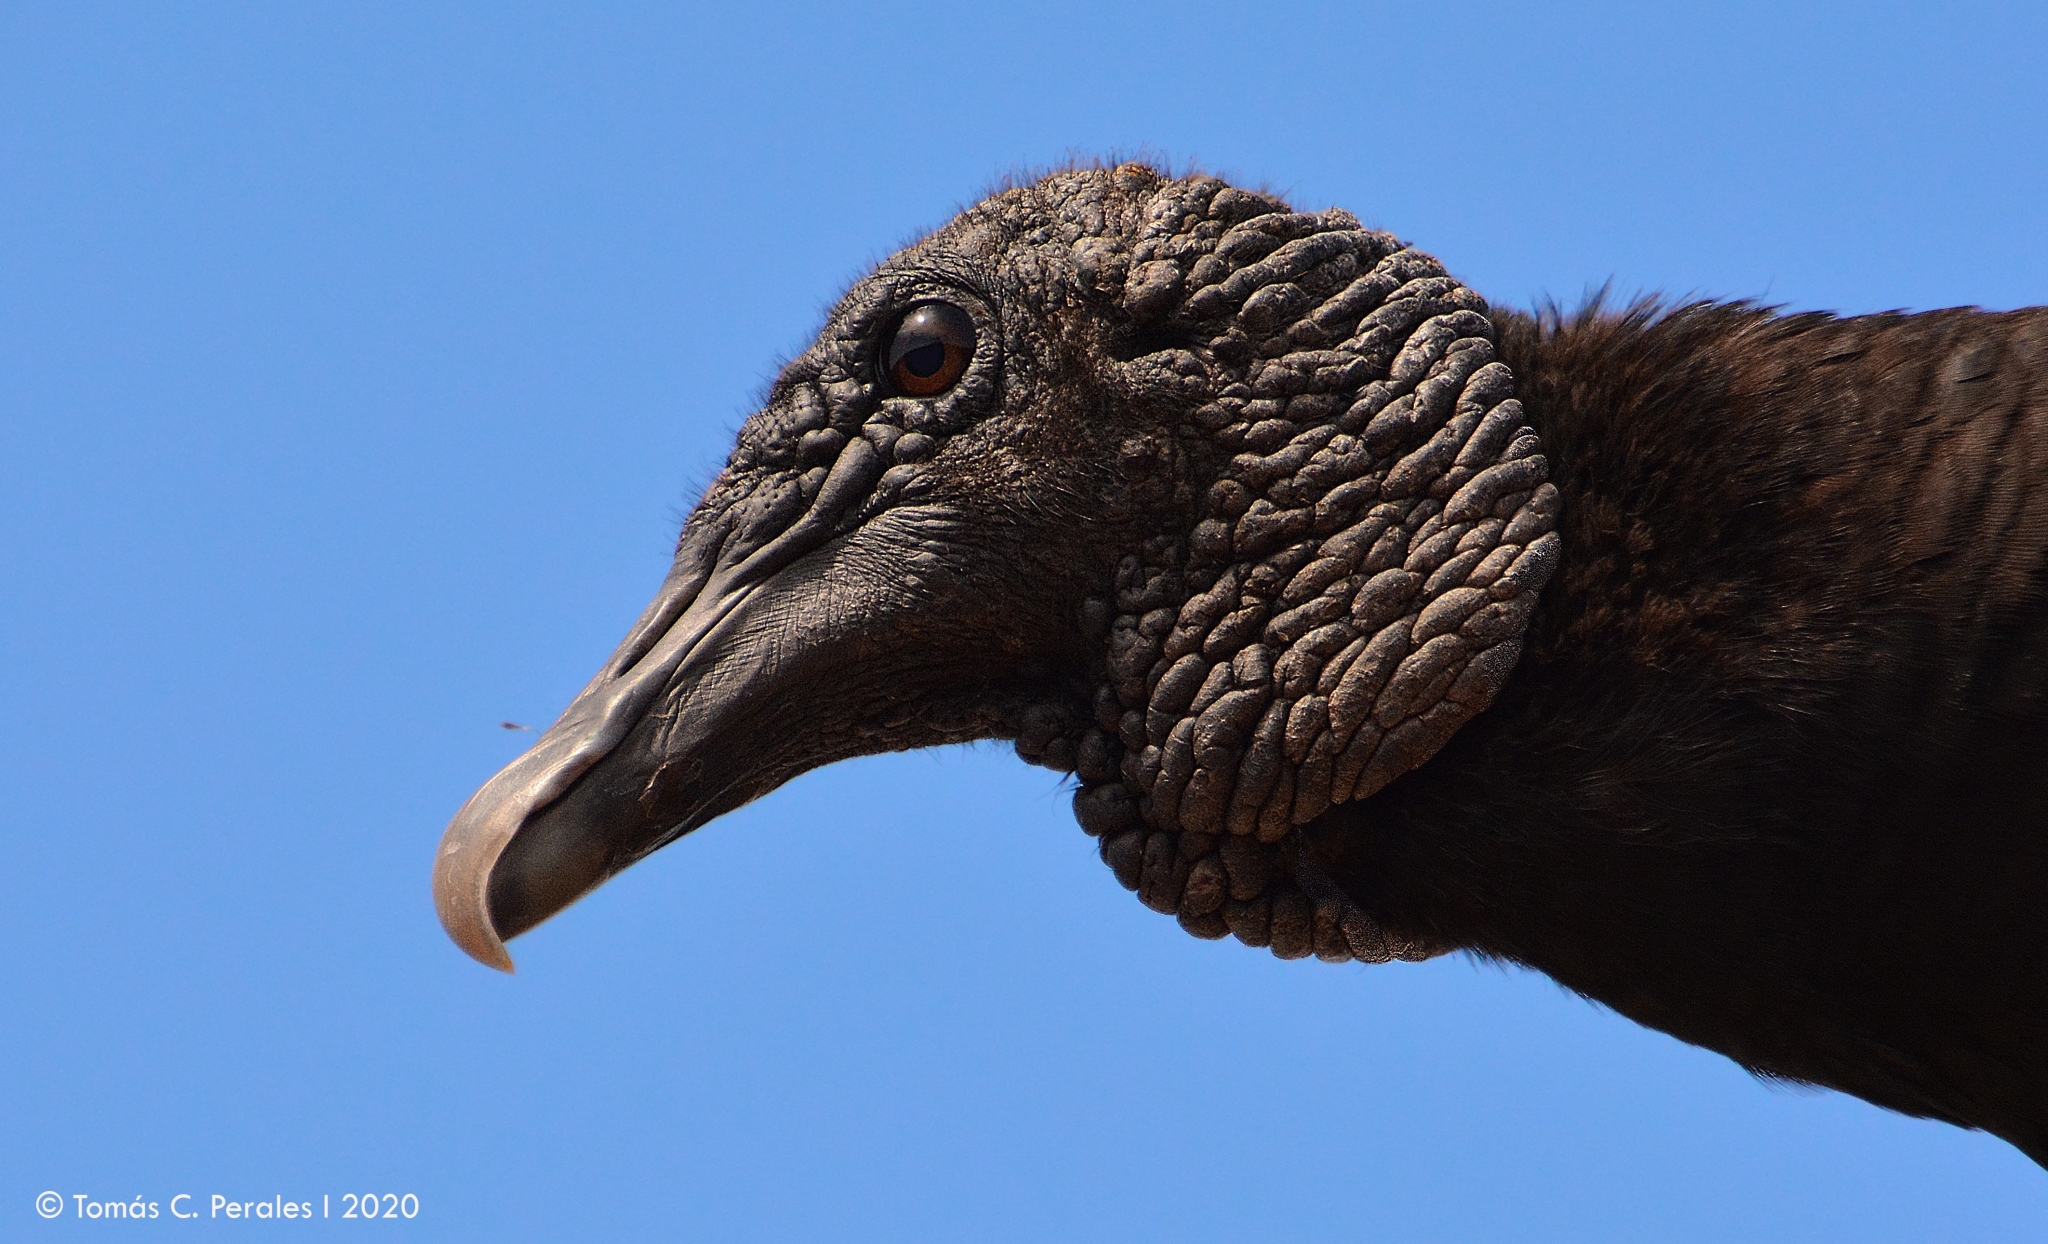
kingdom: Animalia
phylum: Chordata
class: Aves
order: Accipitriformes
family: Cathartidae
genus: Coragyps
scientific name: Coragyps atratus
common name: Black vulture
